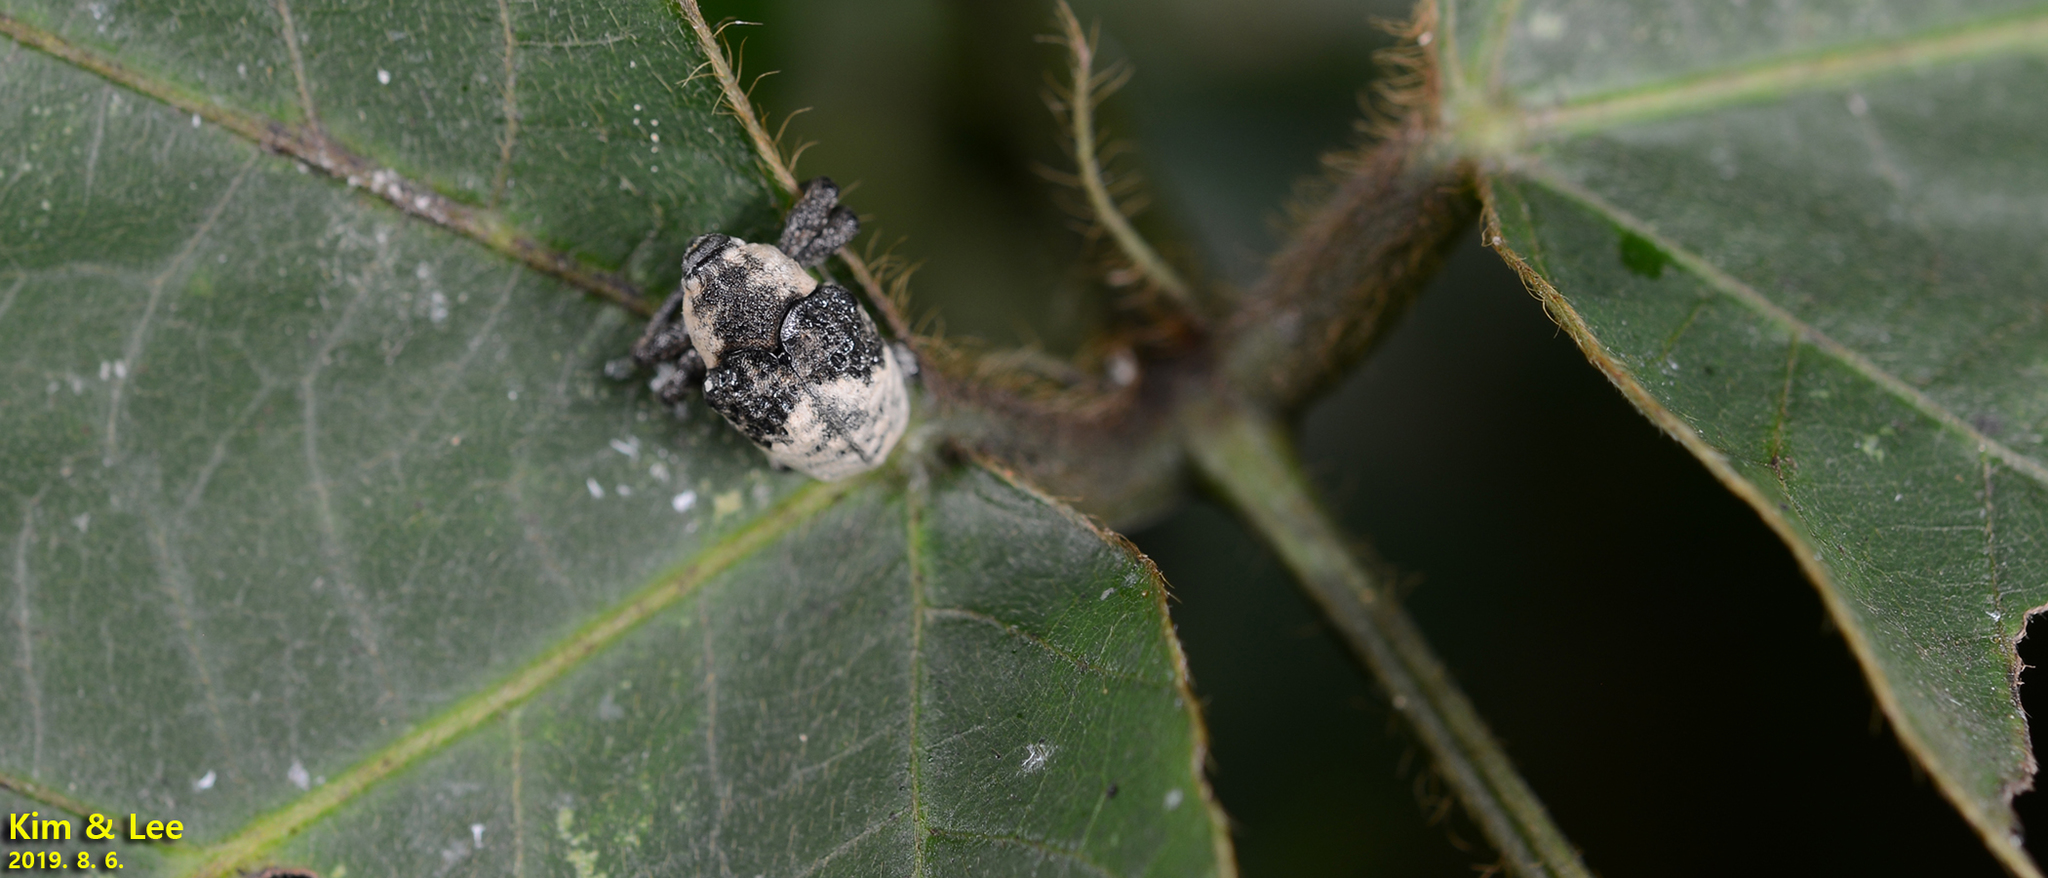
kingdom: Animalia
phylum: Arthropoda
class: Insecta
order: Coleoptera
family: Curculionidae
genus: Alcides
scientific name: Alcides trifidus
